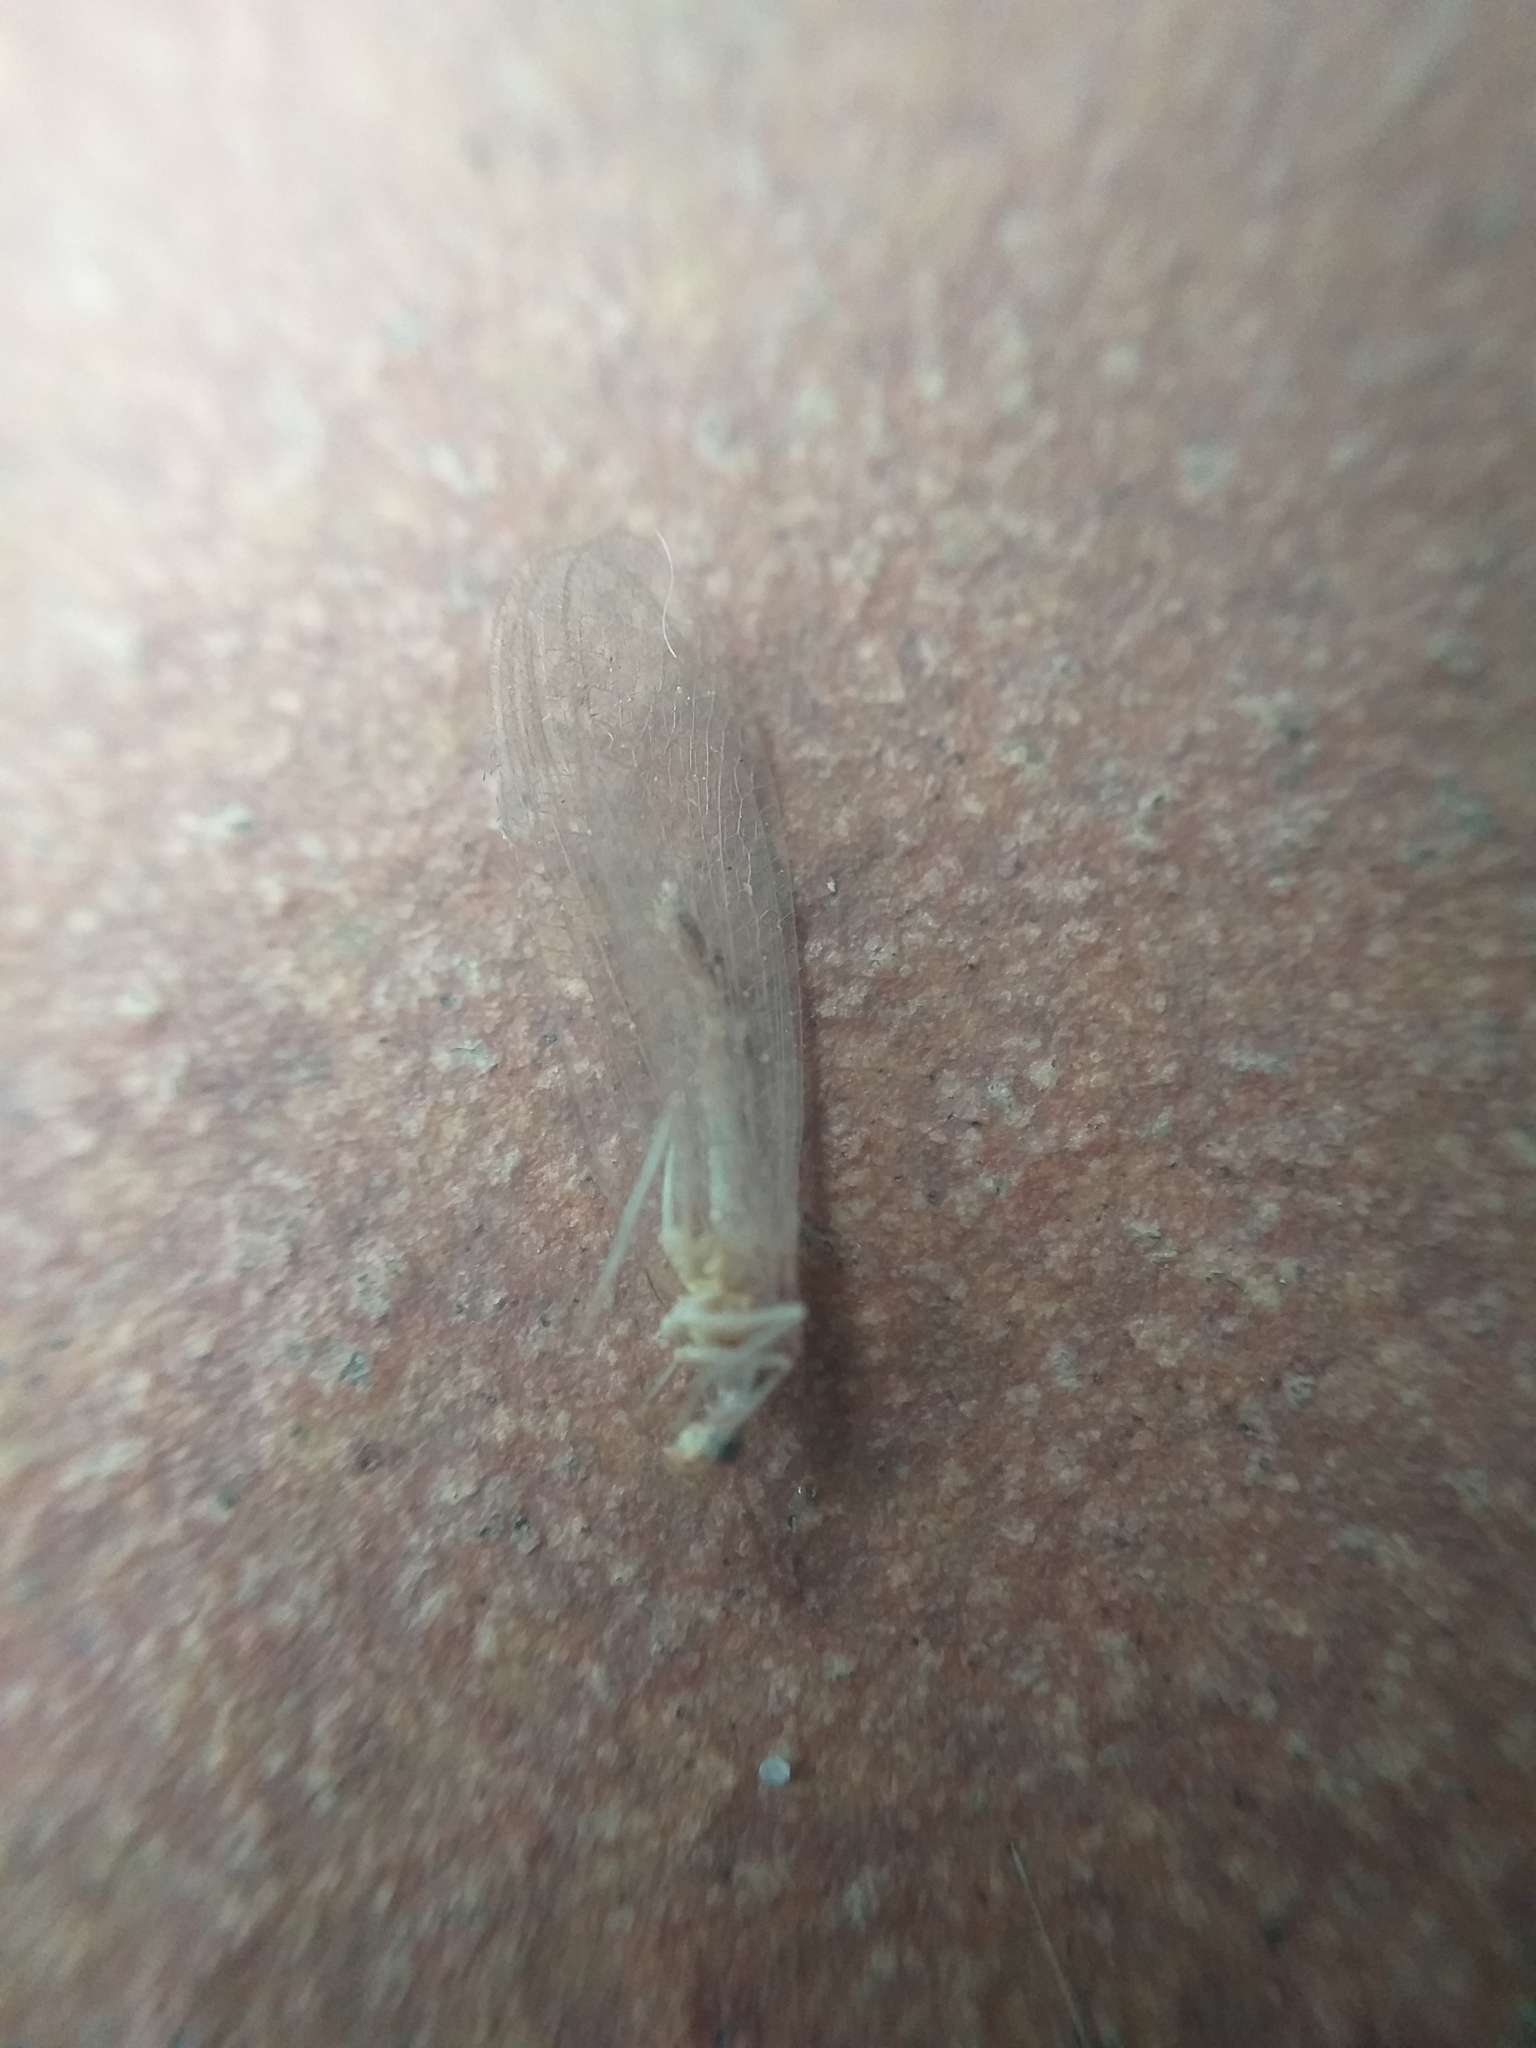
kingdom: Animalia
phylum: Arthropoda
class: Insecta
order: Neuroptera
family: Chrysopidae
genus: Chrysoperla
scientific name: Chrysoperla
